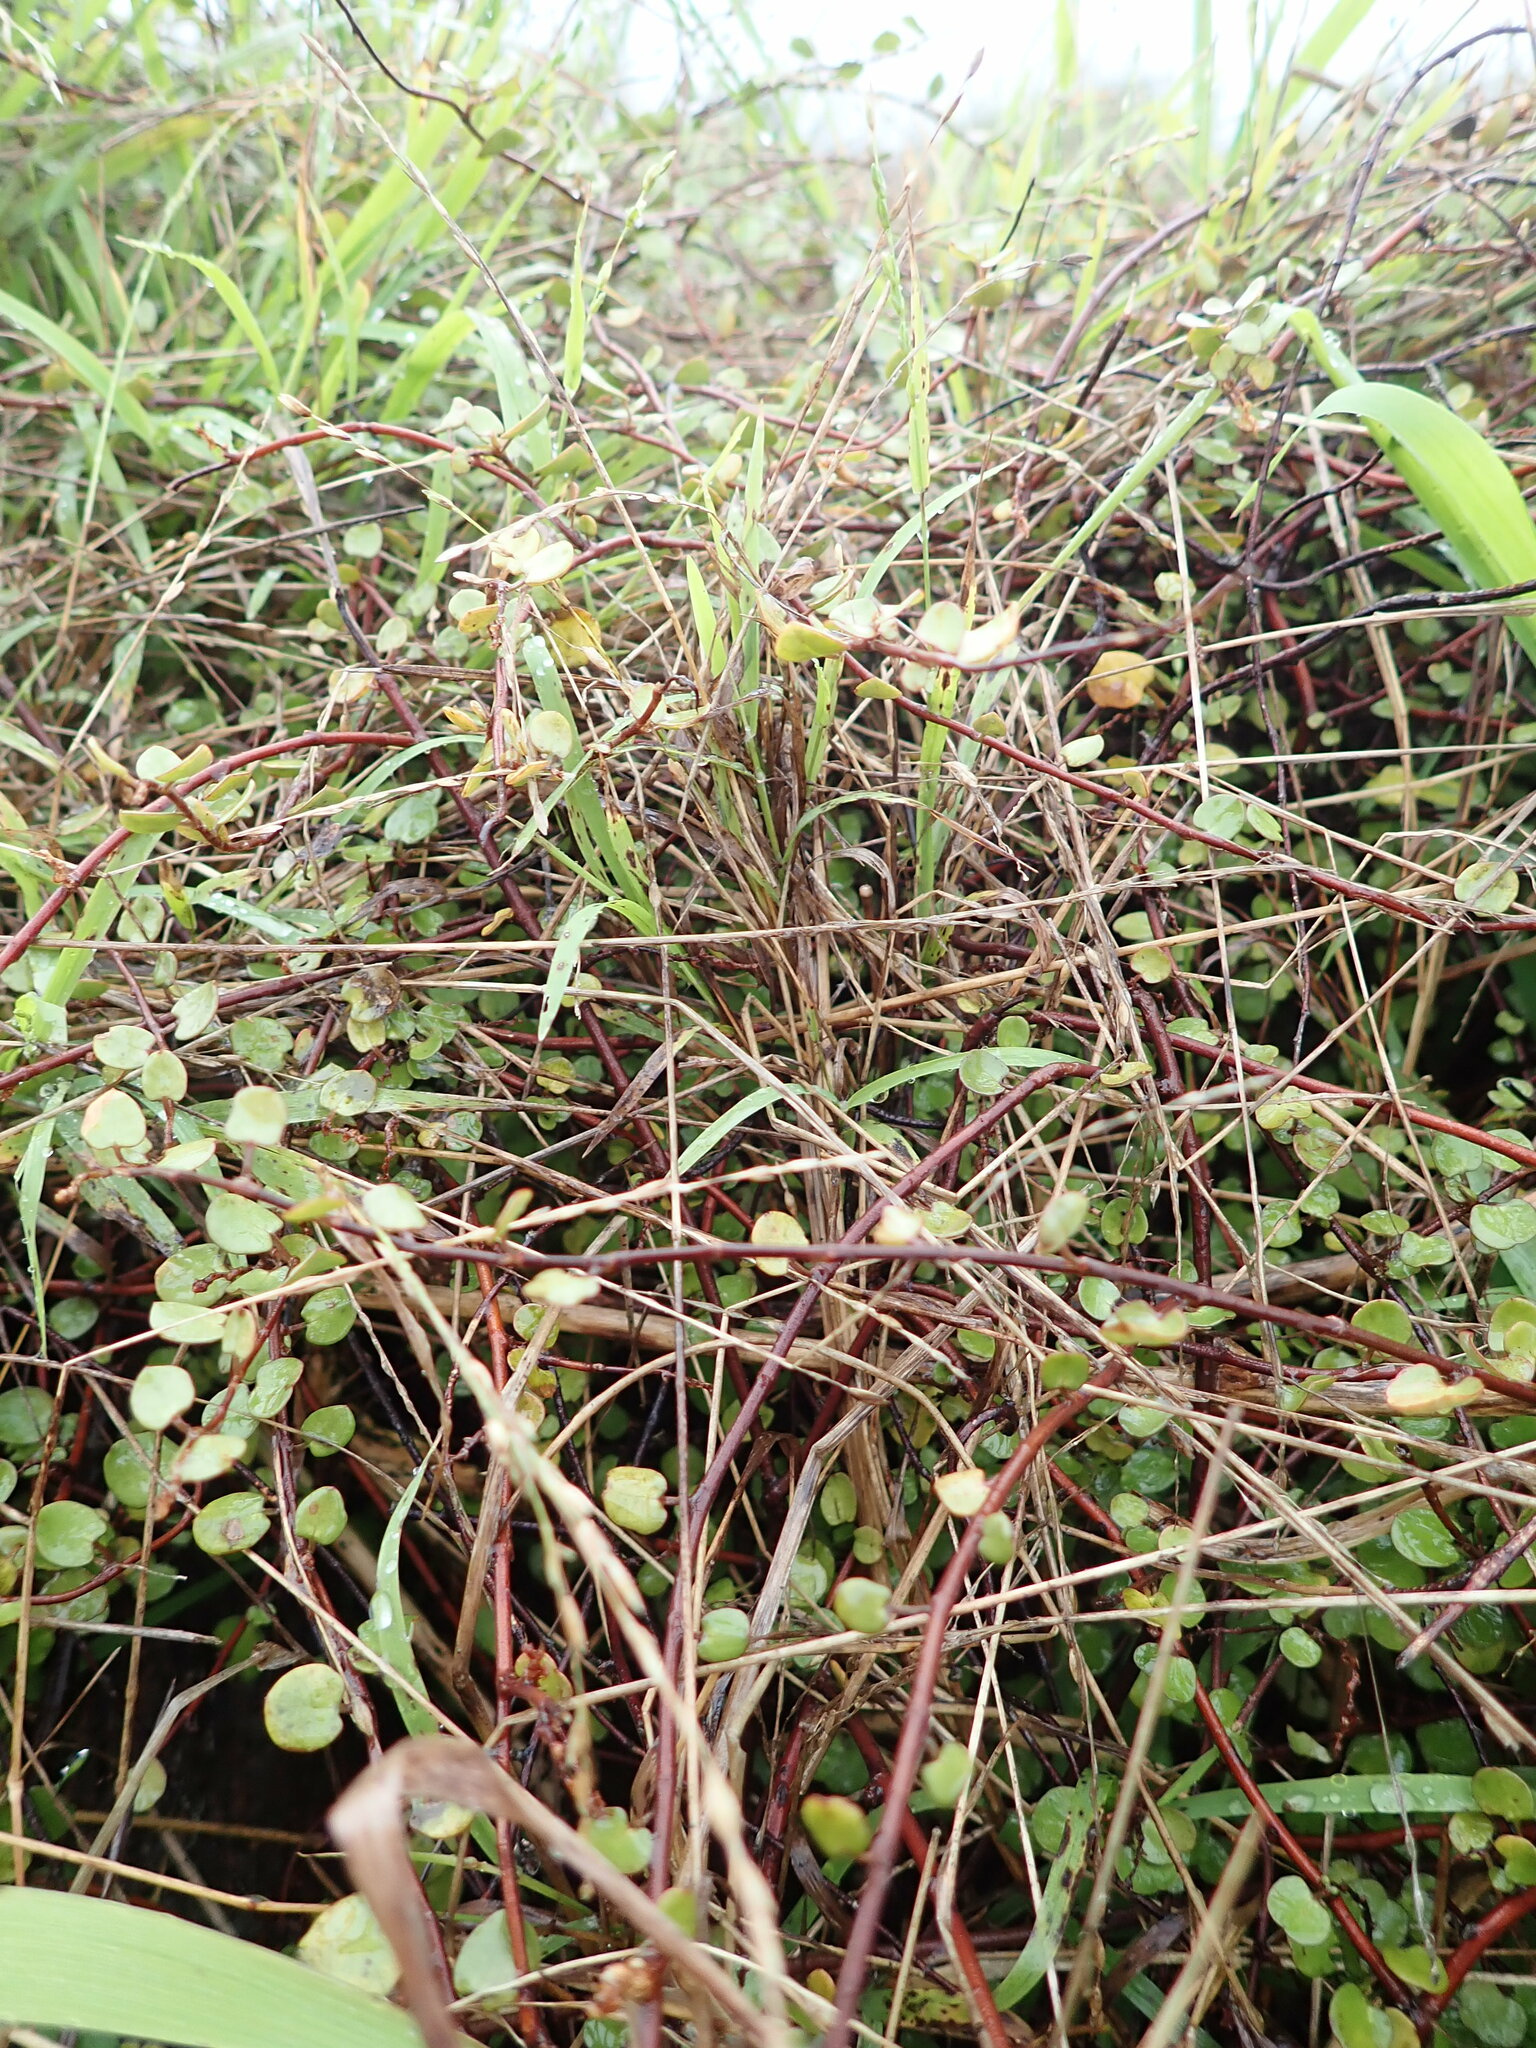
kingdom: Plantae
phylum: Tracheophyta
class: Magnoliopsida
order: Caryophyllales
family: Polygonaceae
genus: Muehlenbeckia
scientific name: Muehlenbeckia complexa
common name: Wireplant
